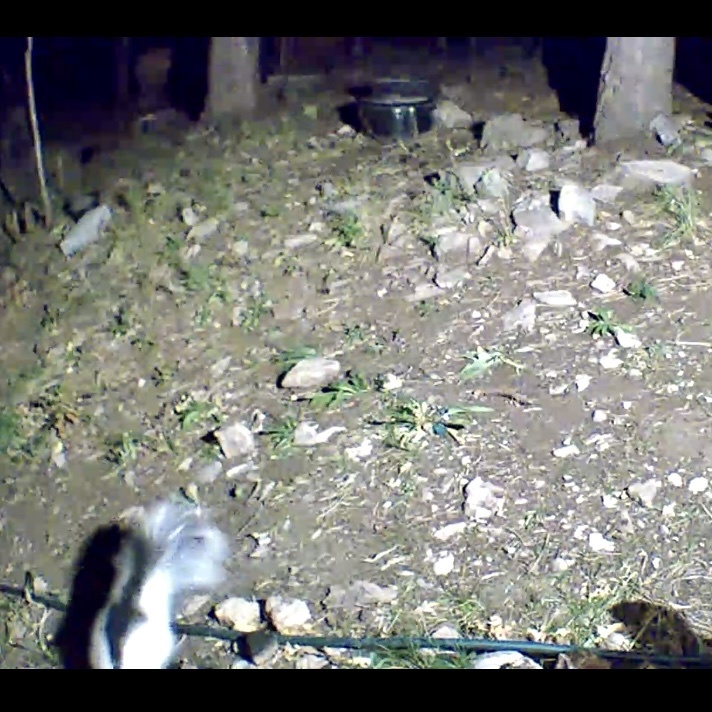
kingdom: Animalia
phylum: Chordata
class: Mammalia
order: Carnivora
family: Mephitidae
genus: Mephitis
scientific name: Mephitis mephitis
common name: Striped skunk
